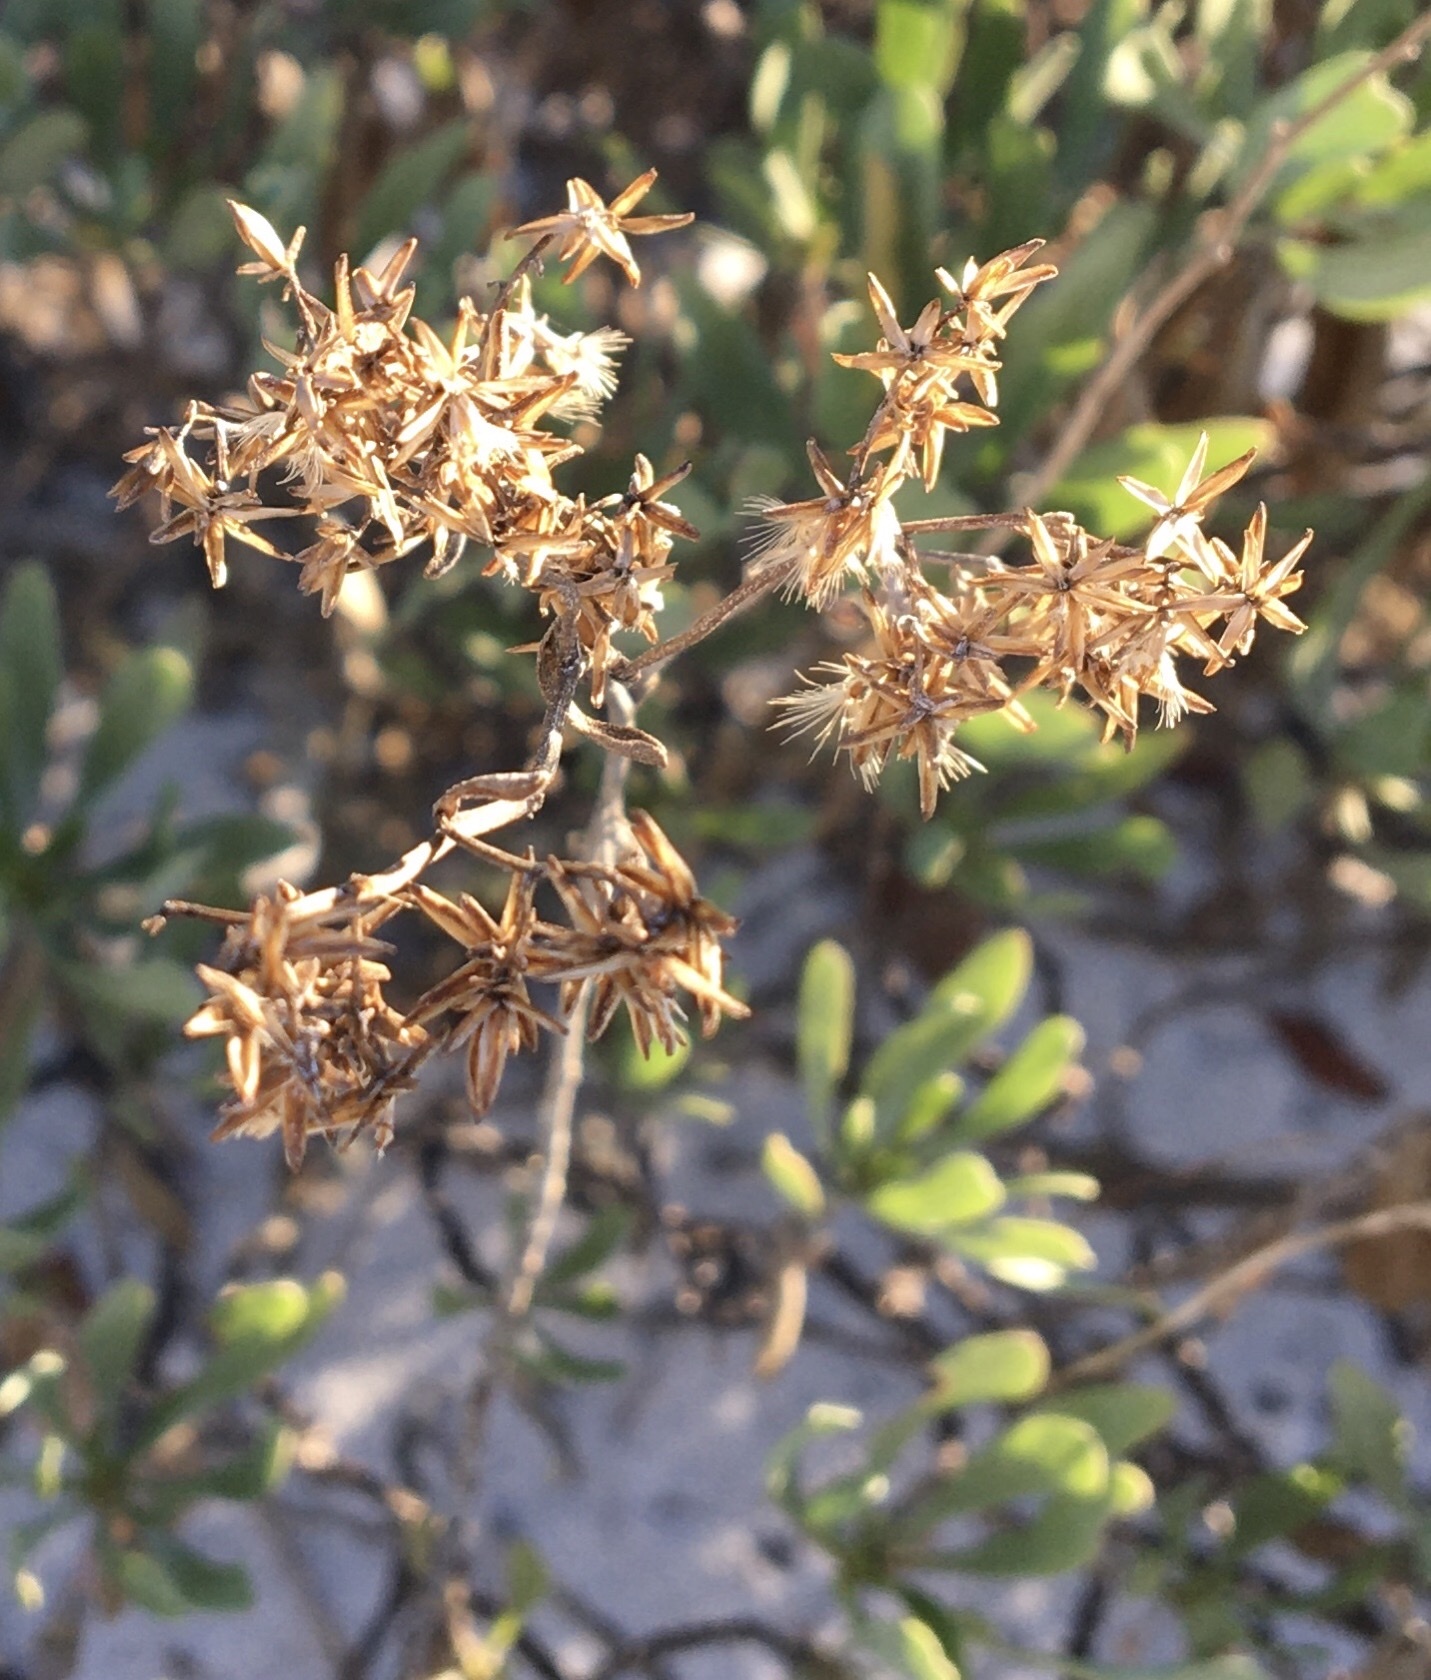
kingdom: Plantae
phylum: Tracheophyta
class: Magnoliopsida
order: Asterales
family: Asteraceae
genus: Chrysoma
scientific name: Chrysoma pauciflosculosa
